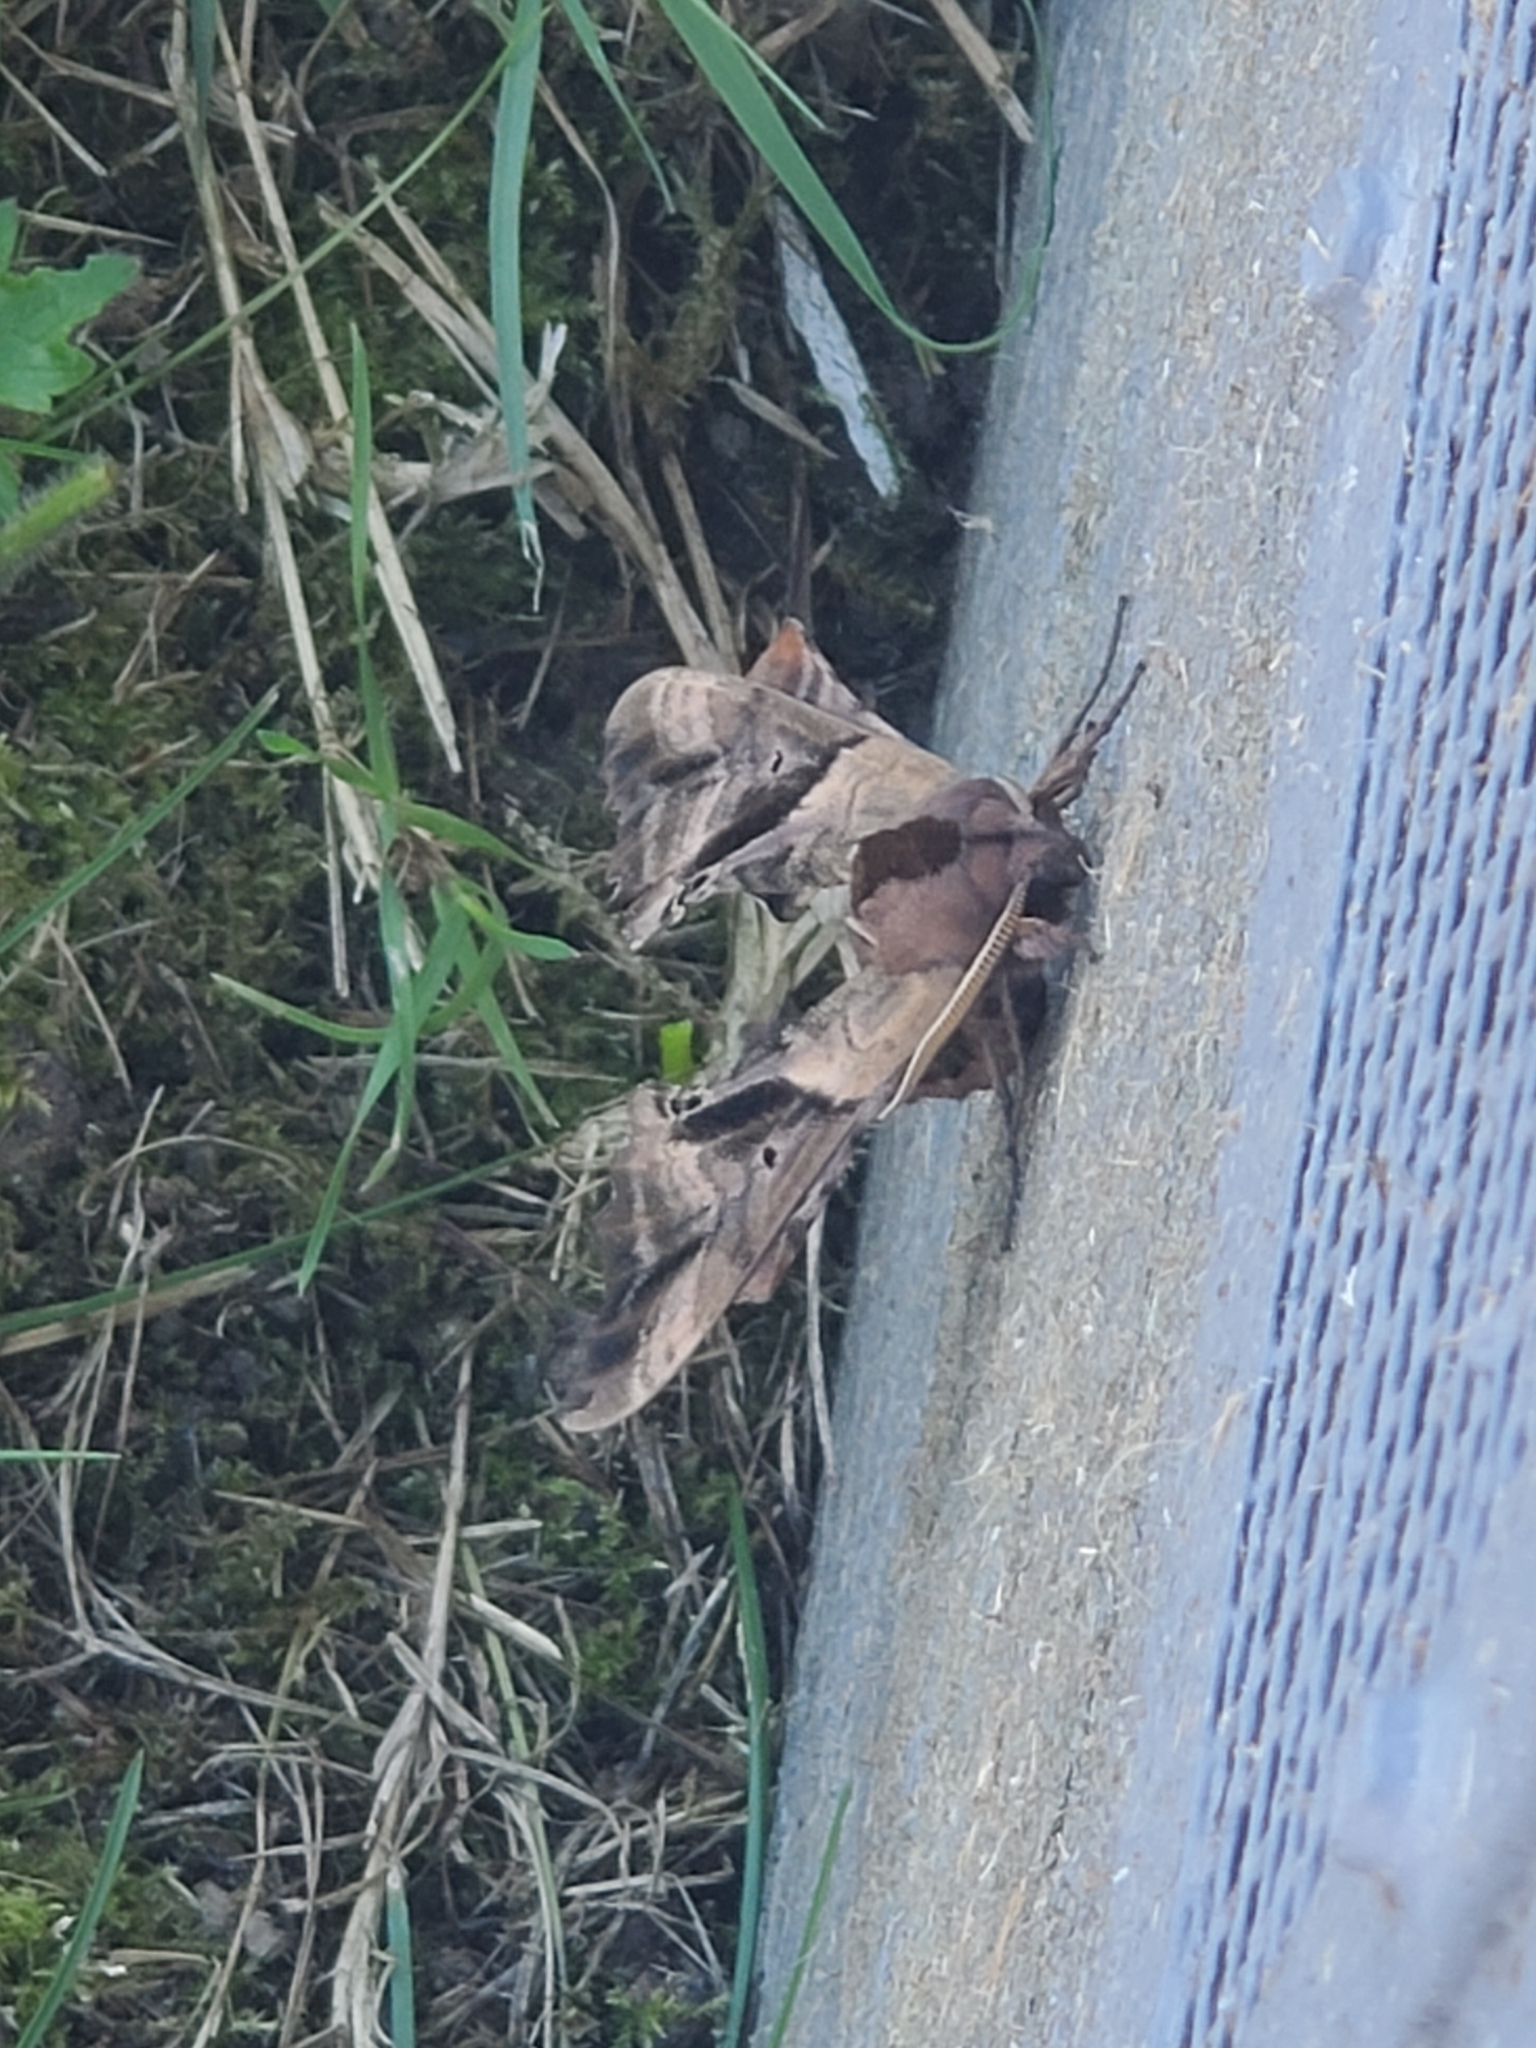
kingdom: Animalia
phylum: Arthropoda
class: Insecta
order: Lepidoptera
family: Sphingidae
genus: Paonias
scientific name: Paonias excaecata
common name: Blind-eyed sphinx
